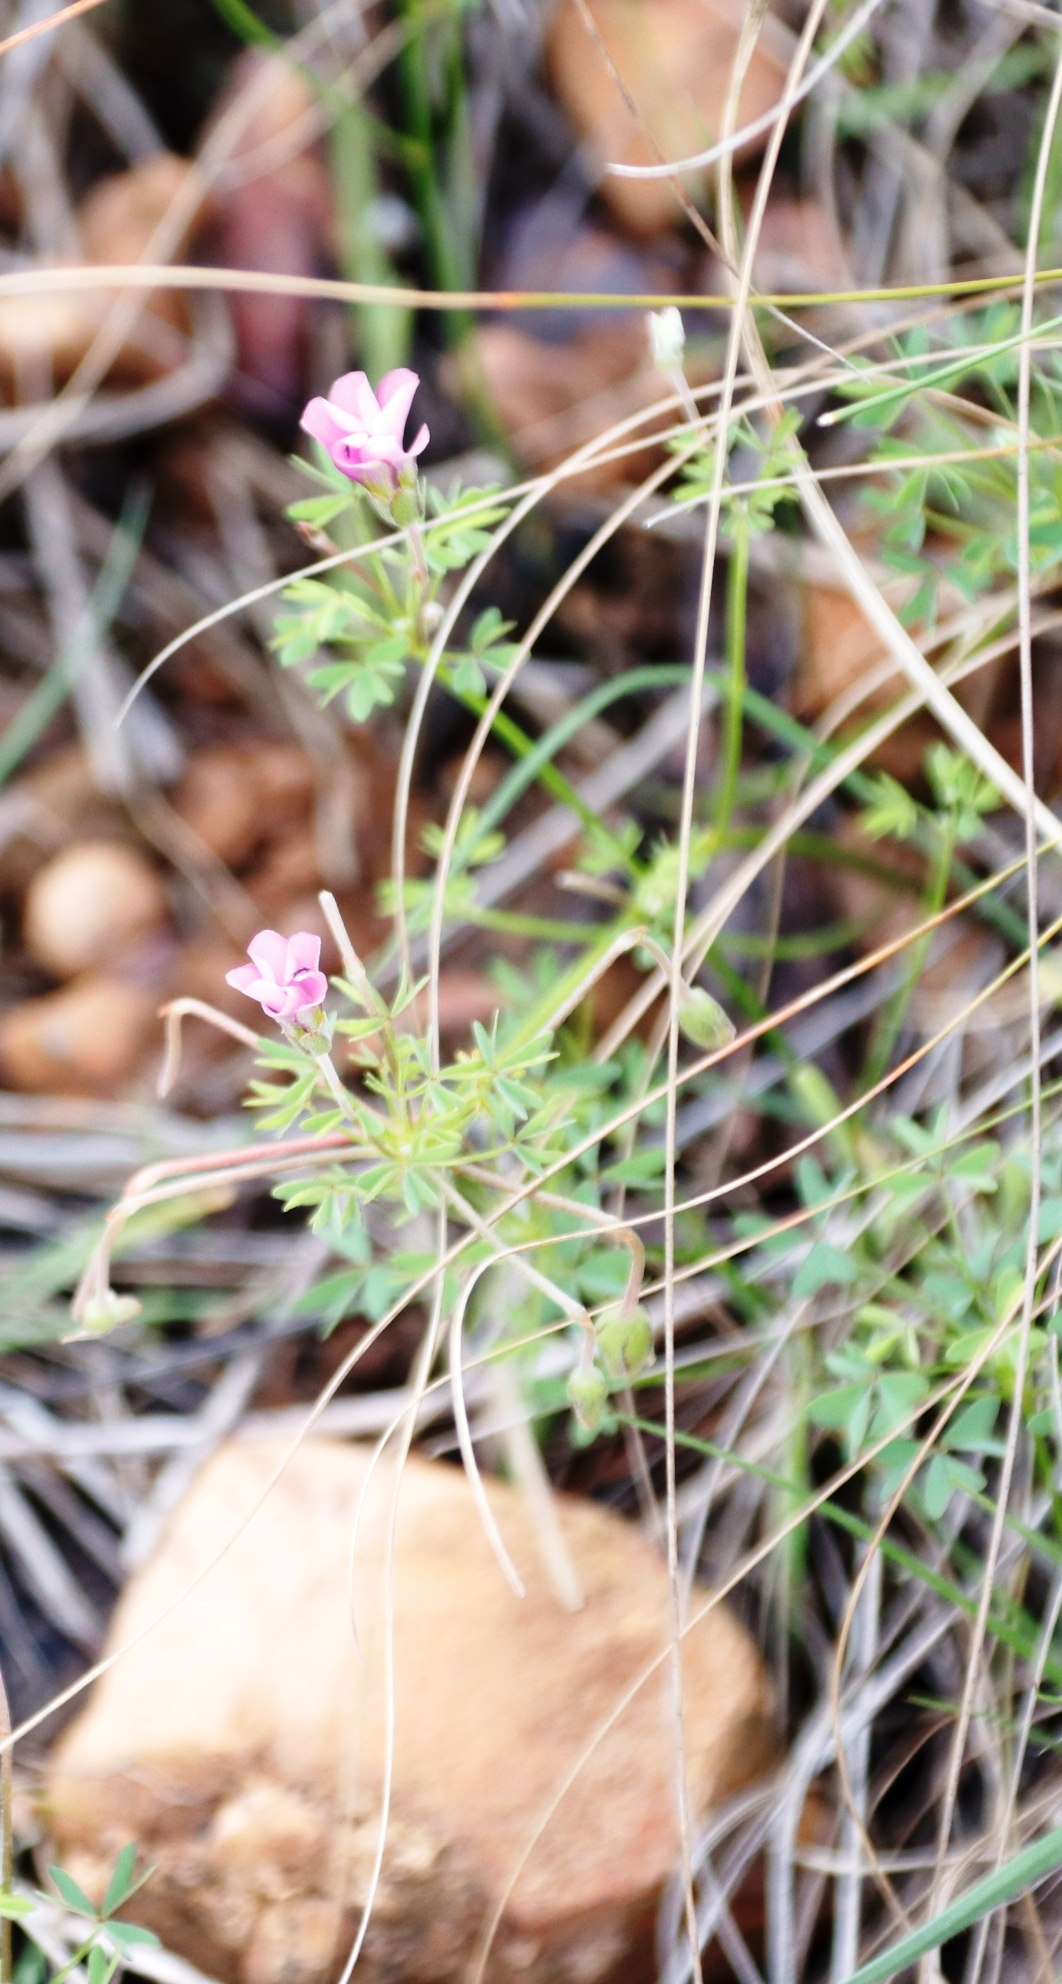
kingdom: Plantae
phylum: Tracheophyta
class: Magnoliopsida
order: Oxalidales
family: Oxalidaceae
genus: Oxalis
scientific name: Oxalis bifida
